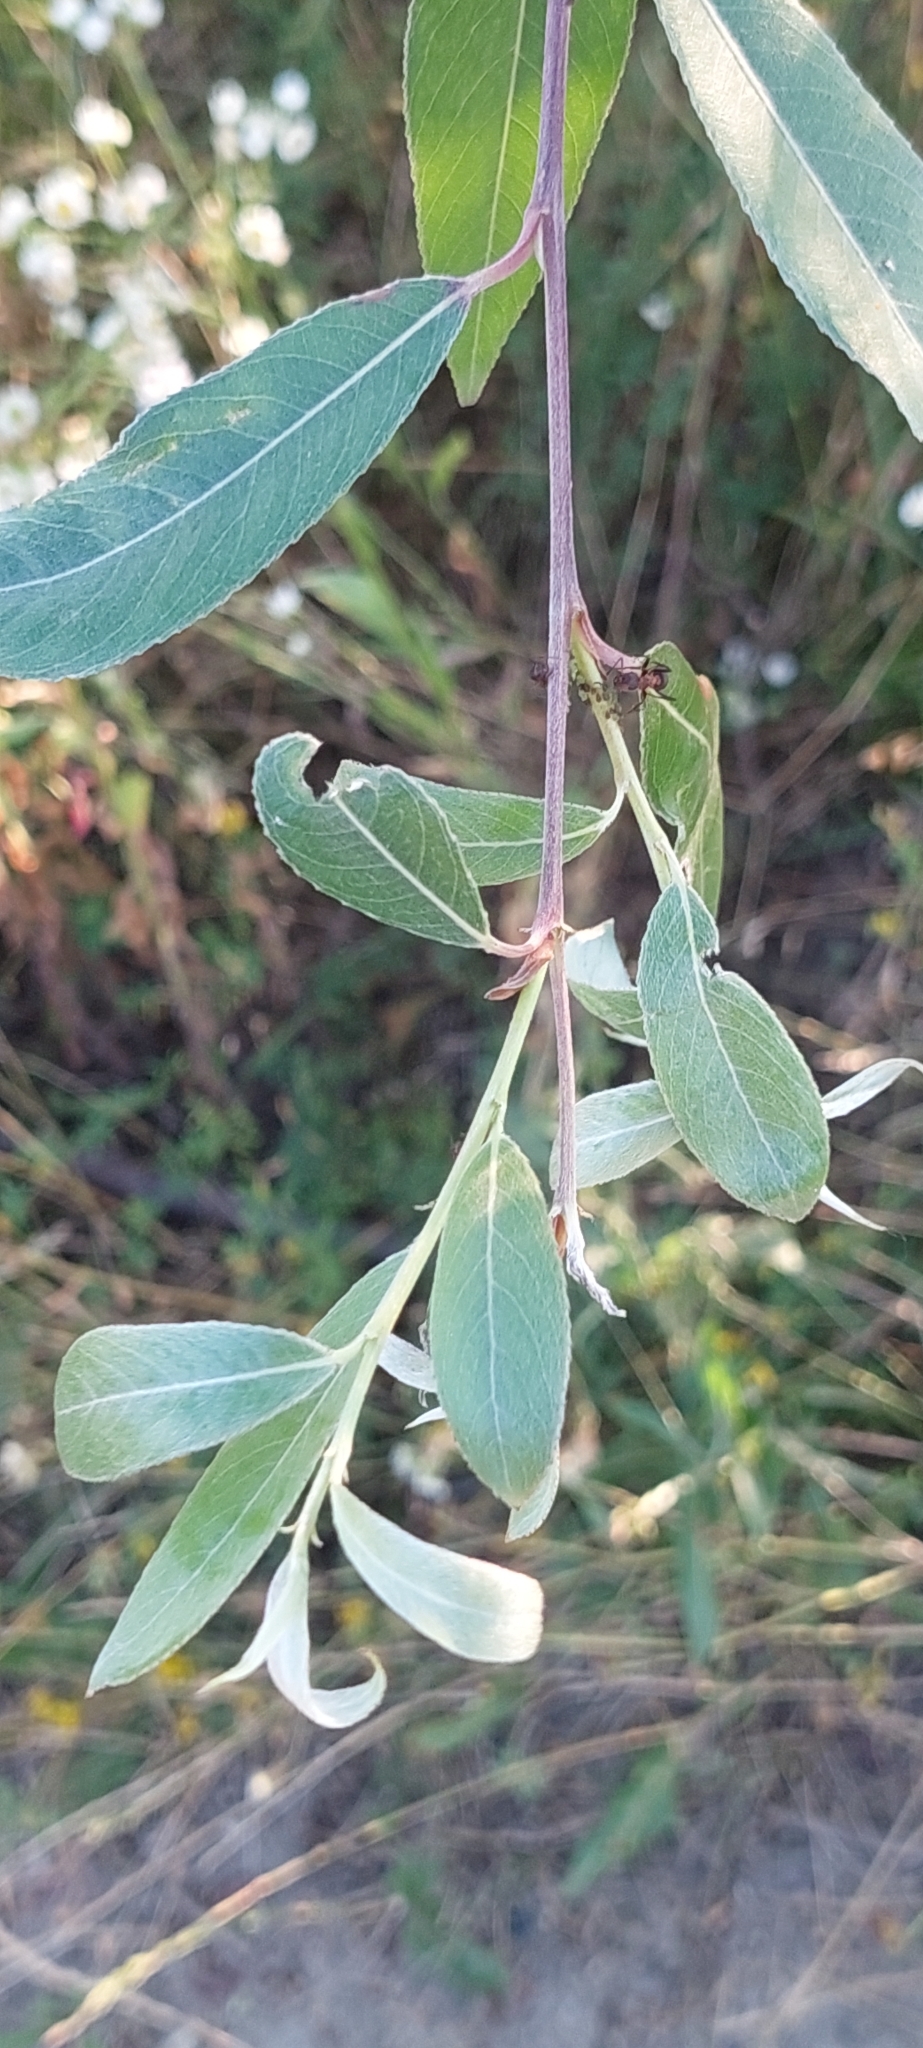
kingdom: Plantae
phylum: Tracheophyta
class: Magnoliopsida
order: Malpighiales
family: Salicaceae
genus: Salix
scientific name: Salix alba
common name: White willow
